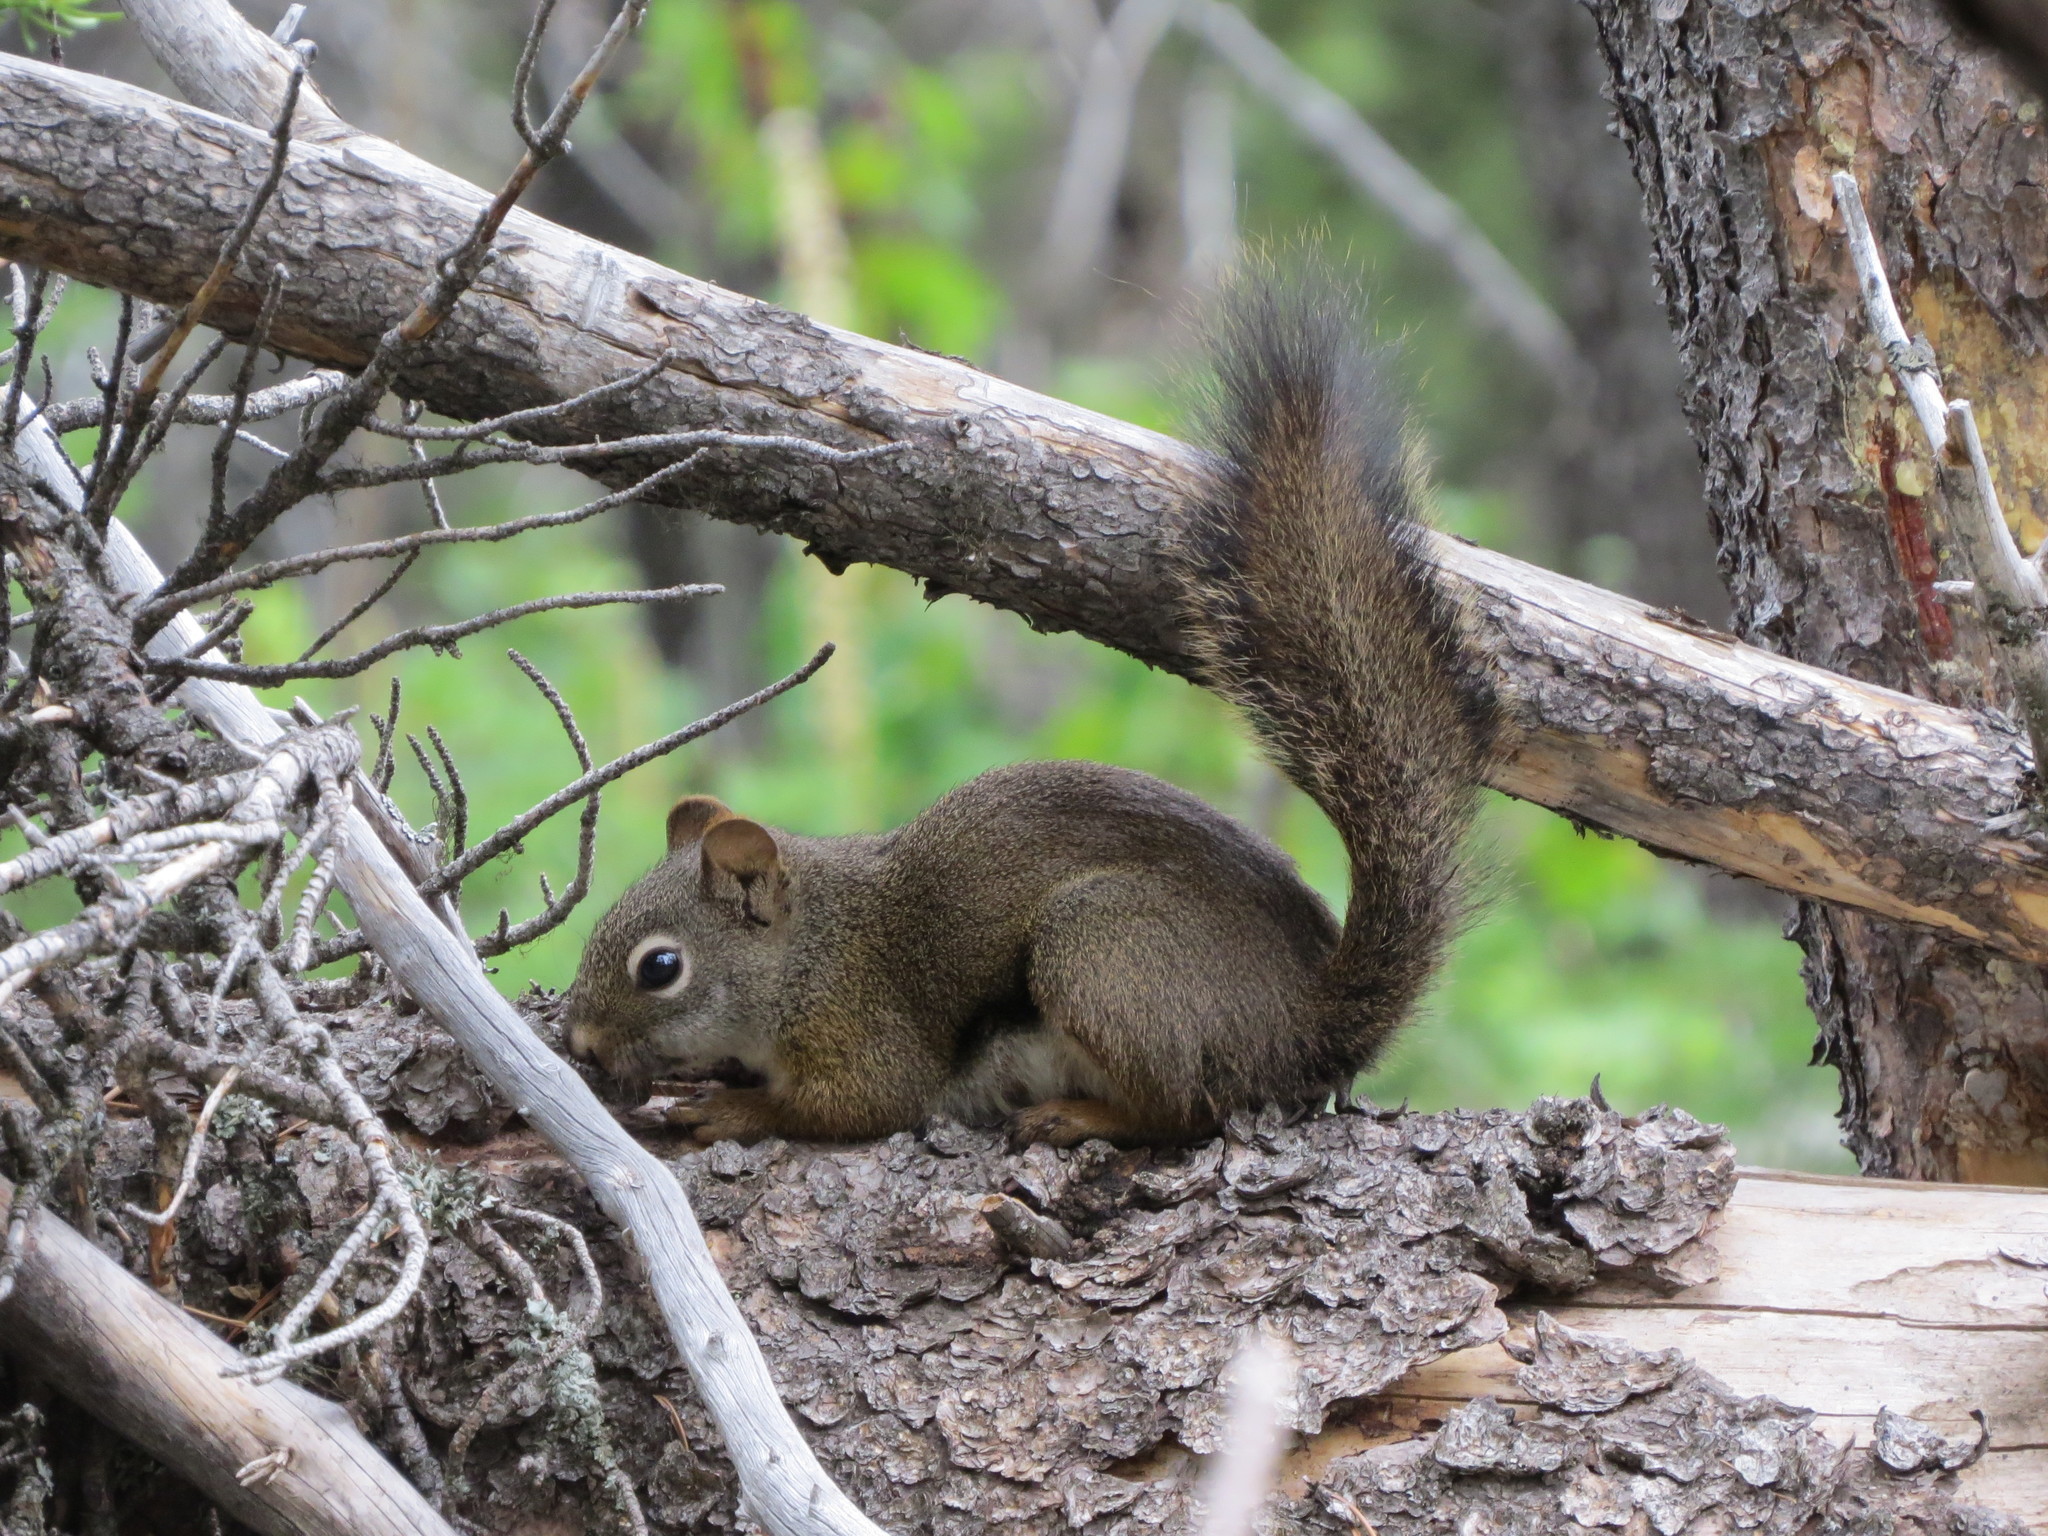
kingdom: Animalia
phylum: Chordata
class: Mammalia
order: Rodentia
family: Sciuridae
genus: Tamiasciurus
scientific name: Tamiasciurus hudsonicus
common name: Red squirrel
